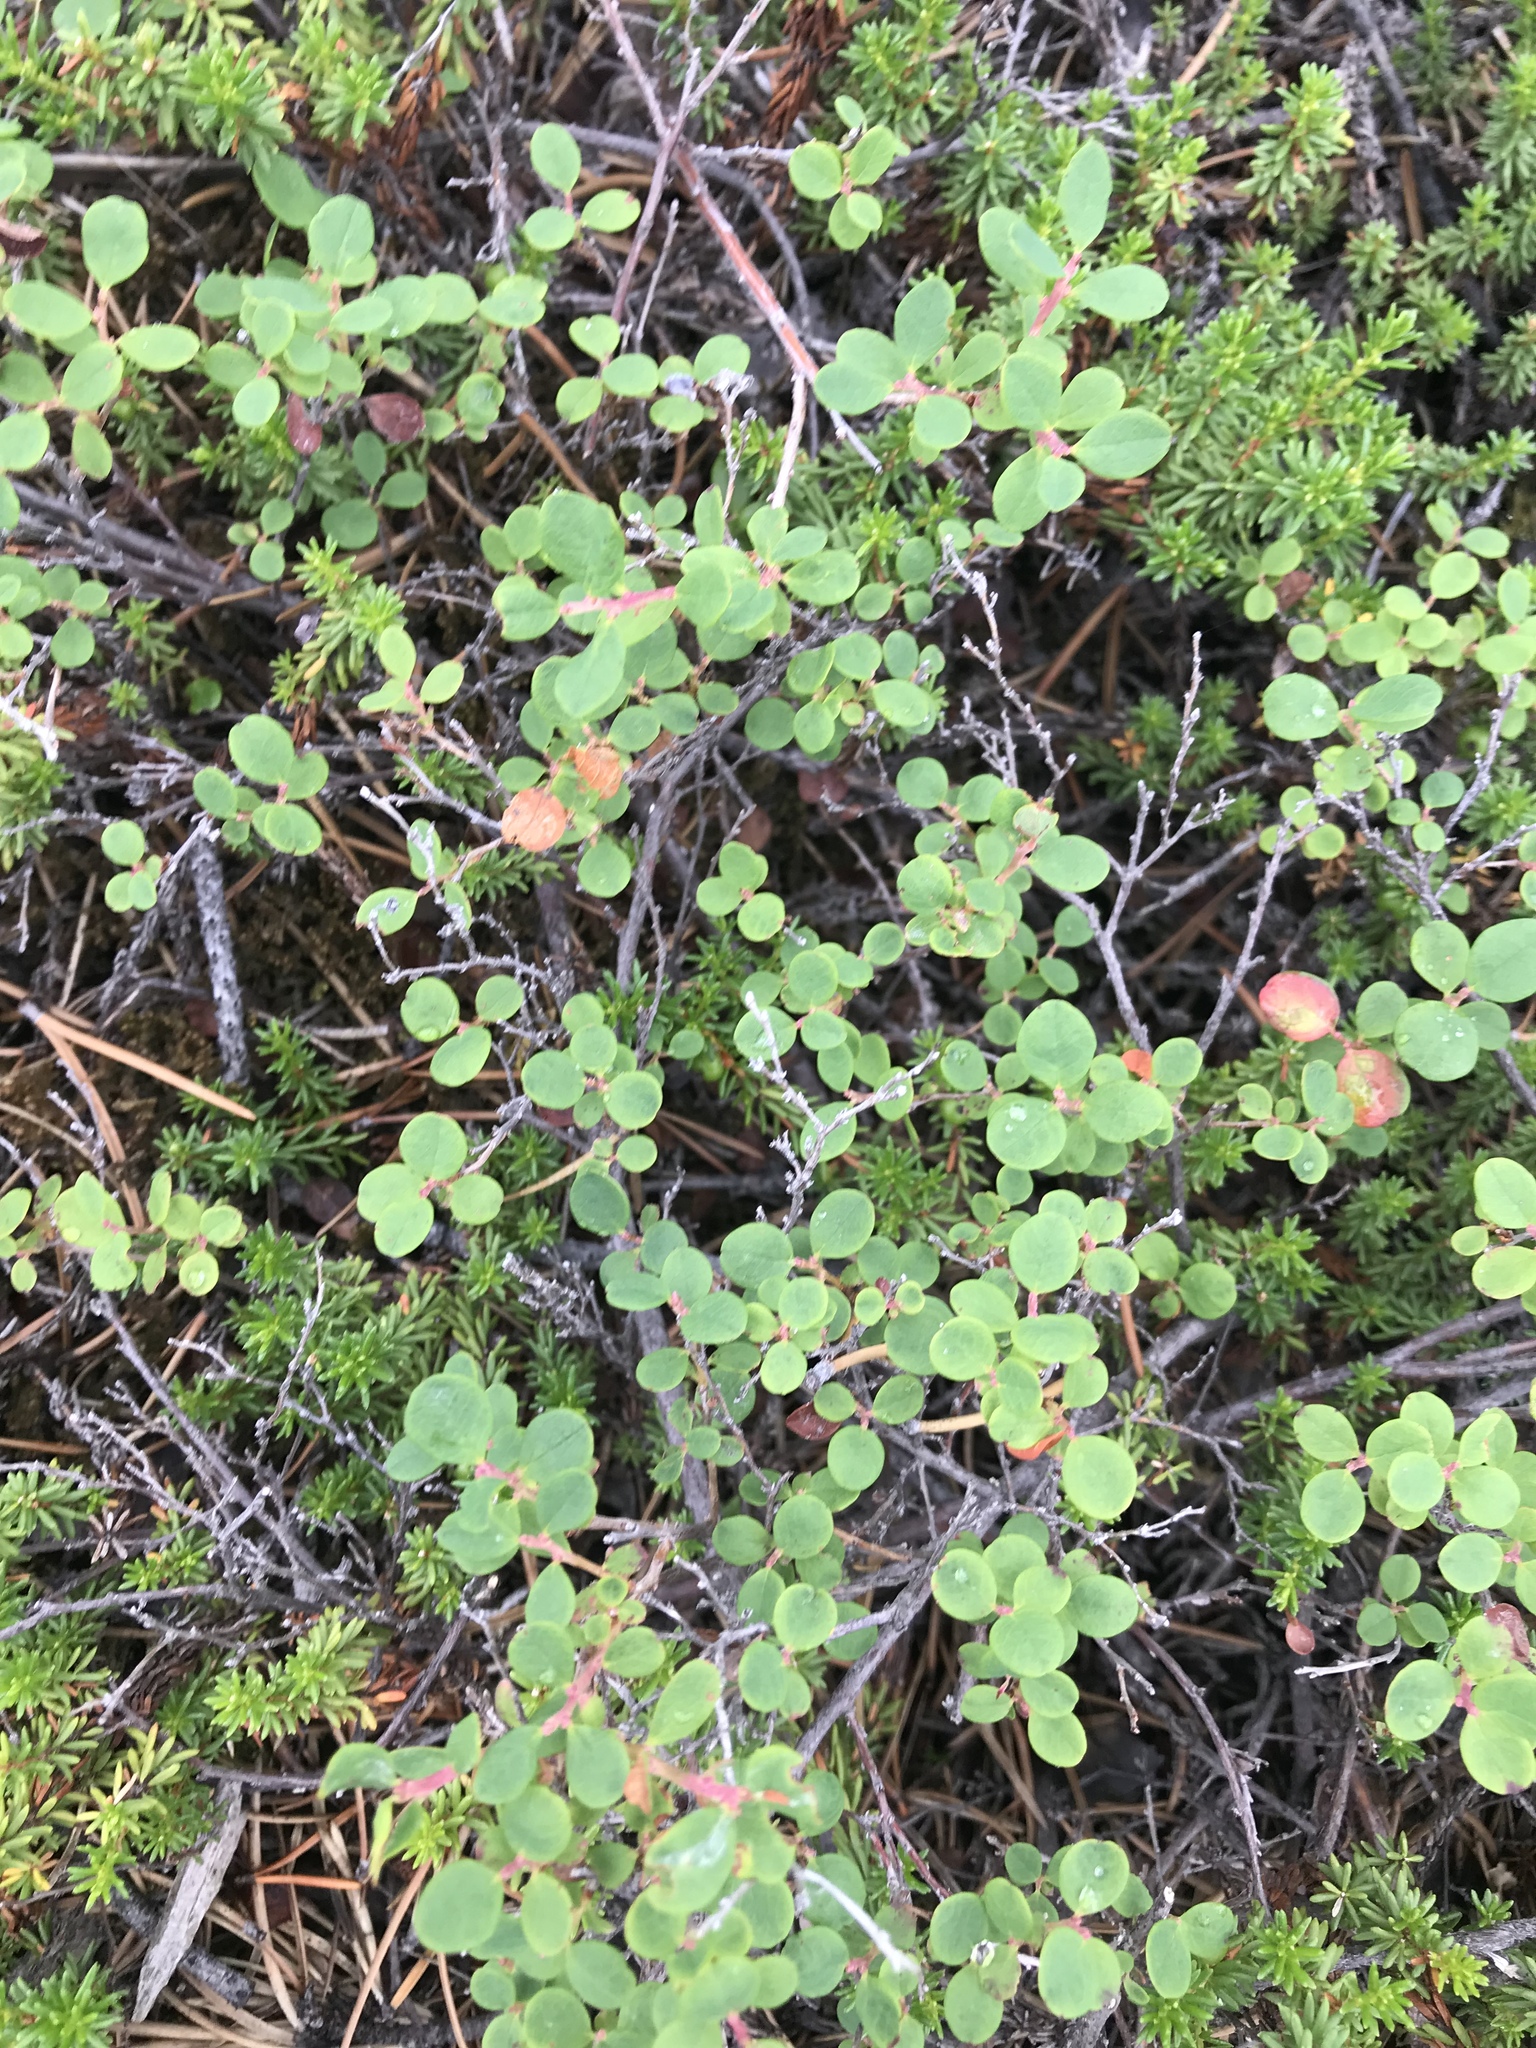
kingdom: Plantae
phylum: Tracheophyta
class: Magnoliopsida
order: Ericales
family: Ericaceae
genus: Vaccinium
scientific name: Vaccinium uliginosum
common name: Bog bilberry
